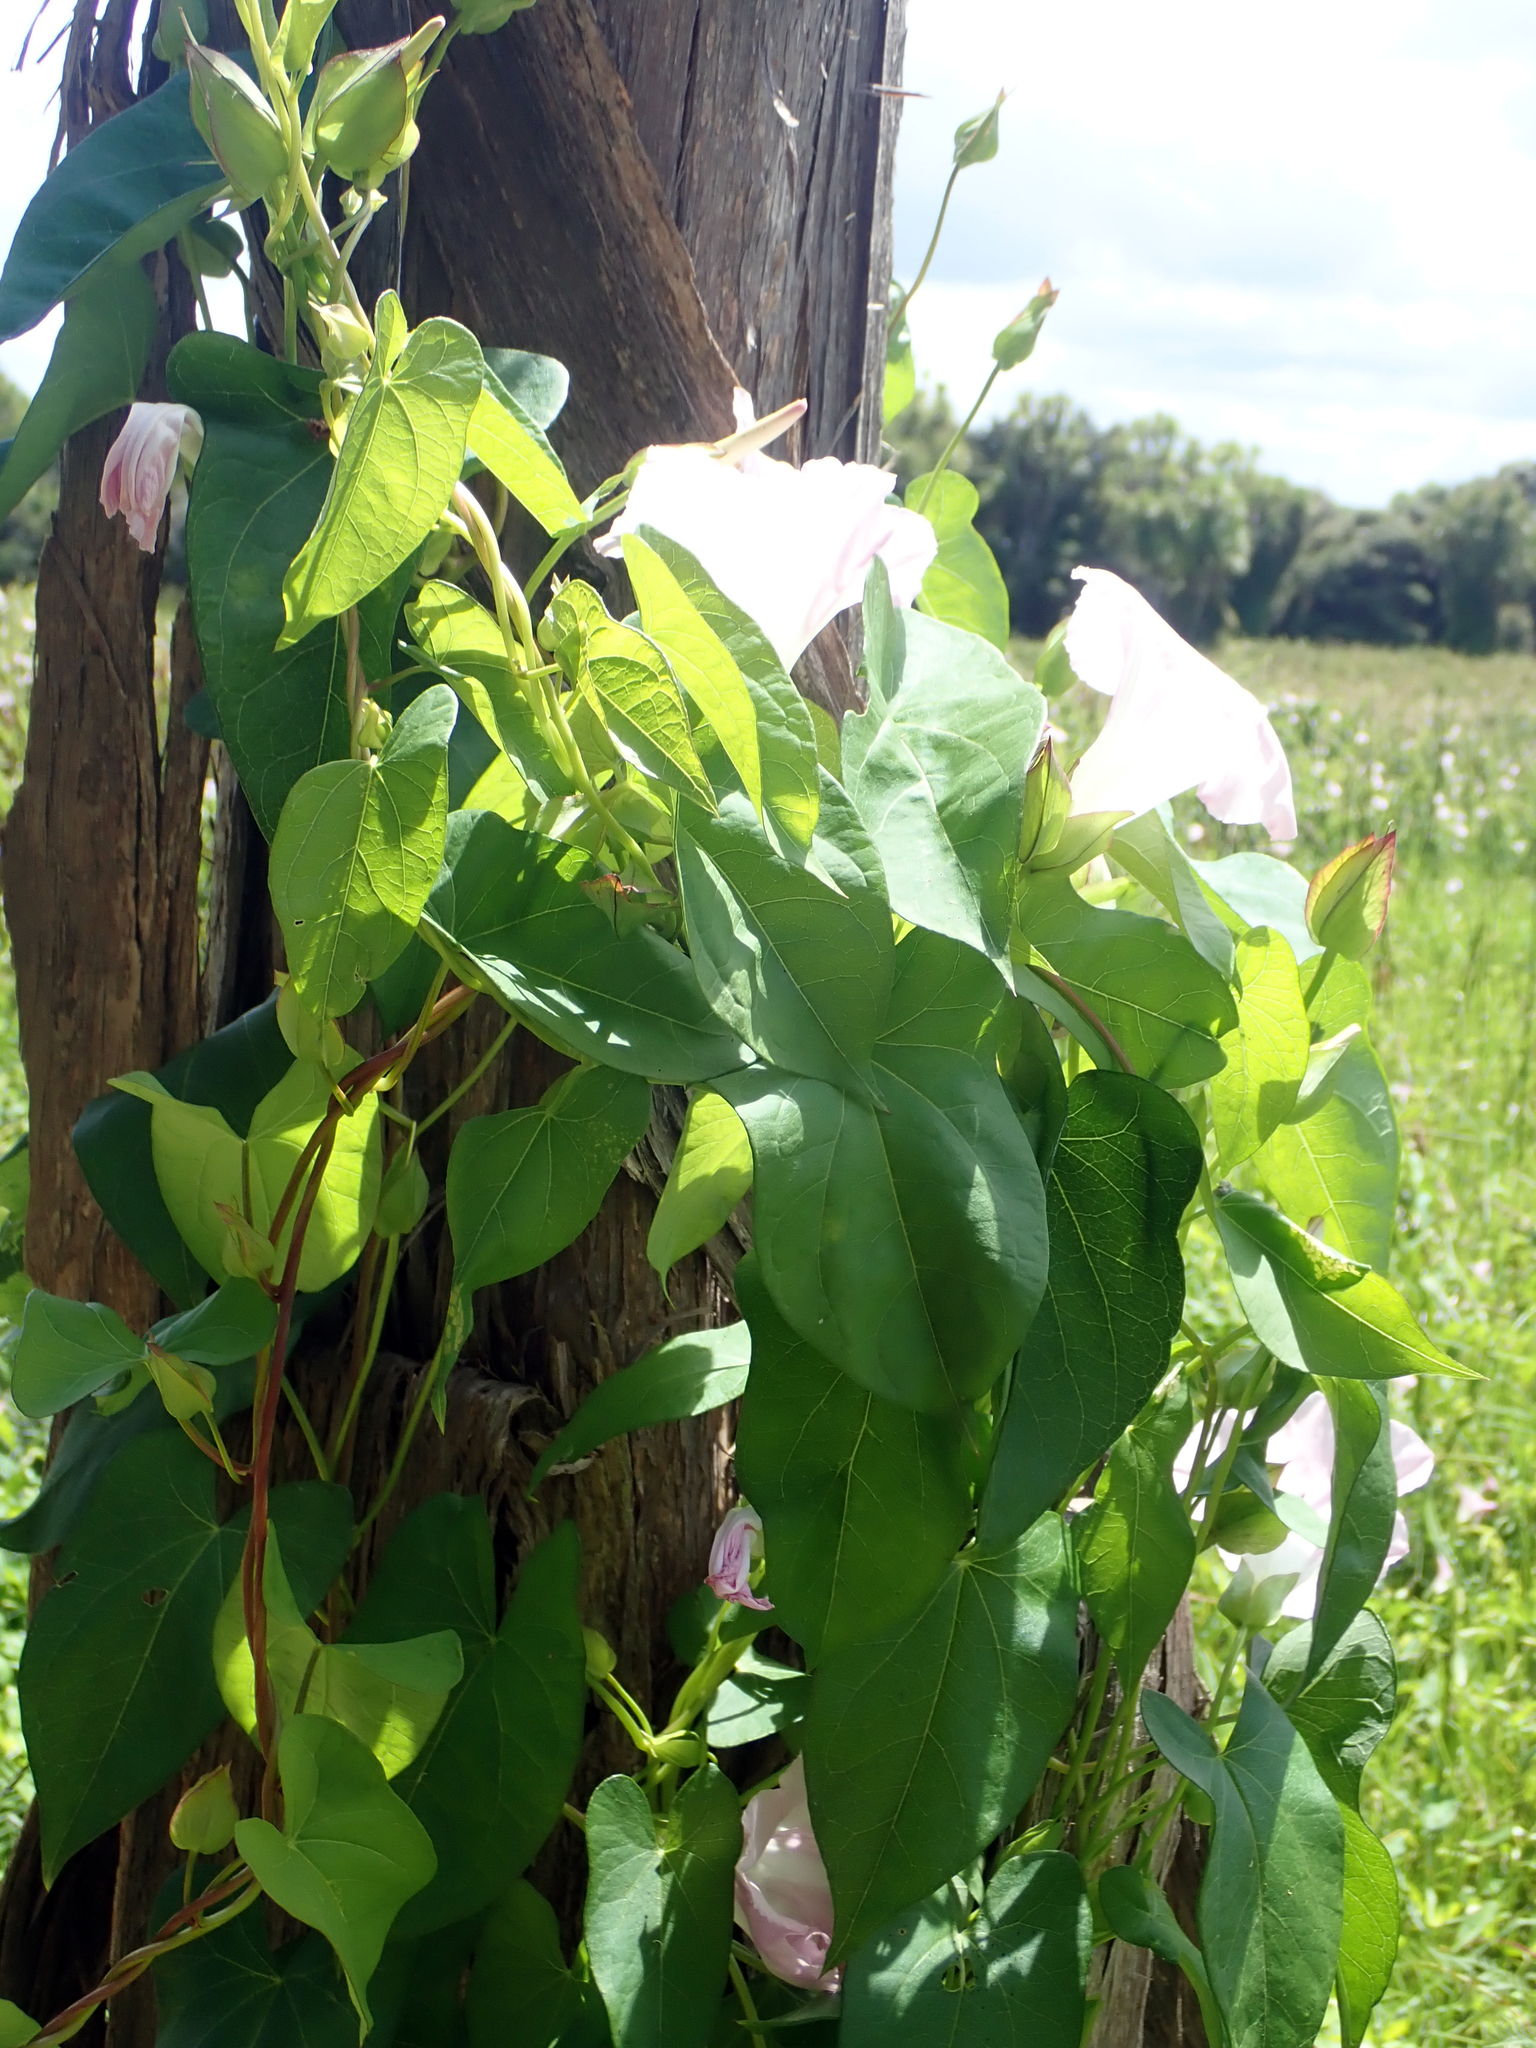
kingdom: Plantae
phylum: Tracheophyta
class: Magnoliopsida
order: Solanales
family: Convolvulaceae
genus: Calystegia
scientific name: Calystegia
